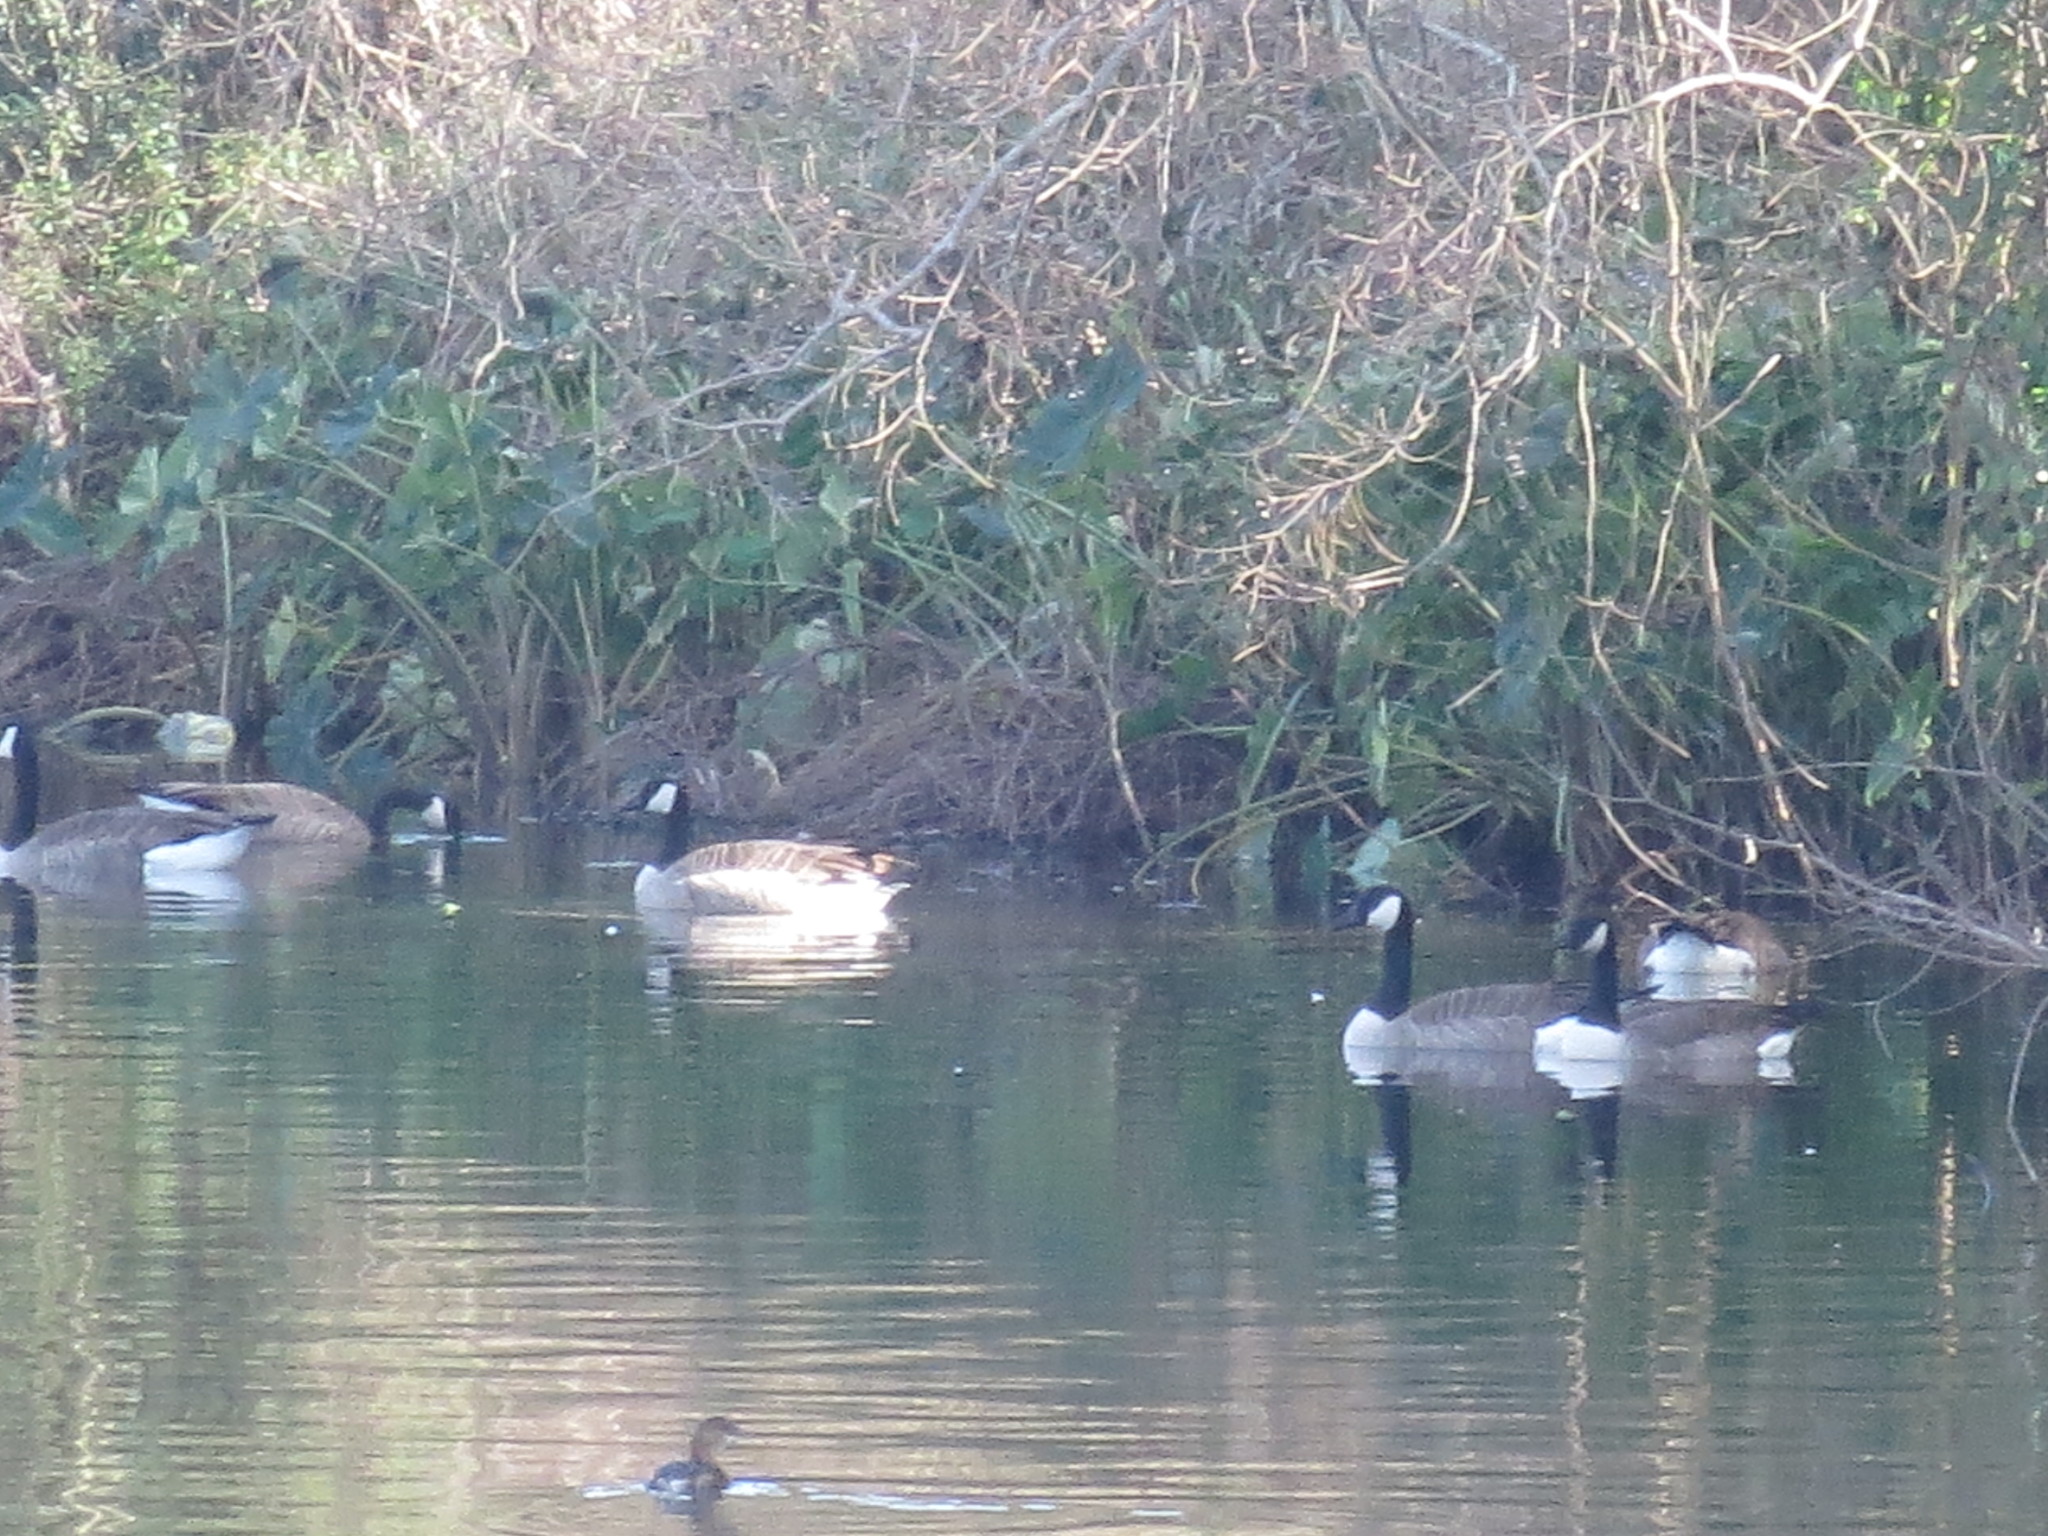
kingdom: Animalia
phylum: Chordata
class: Aves
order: Anseriformes
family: Anatidae
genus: Branta
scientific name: Branta canadensis
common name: Canada goose
